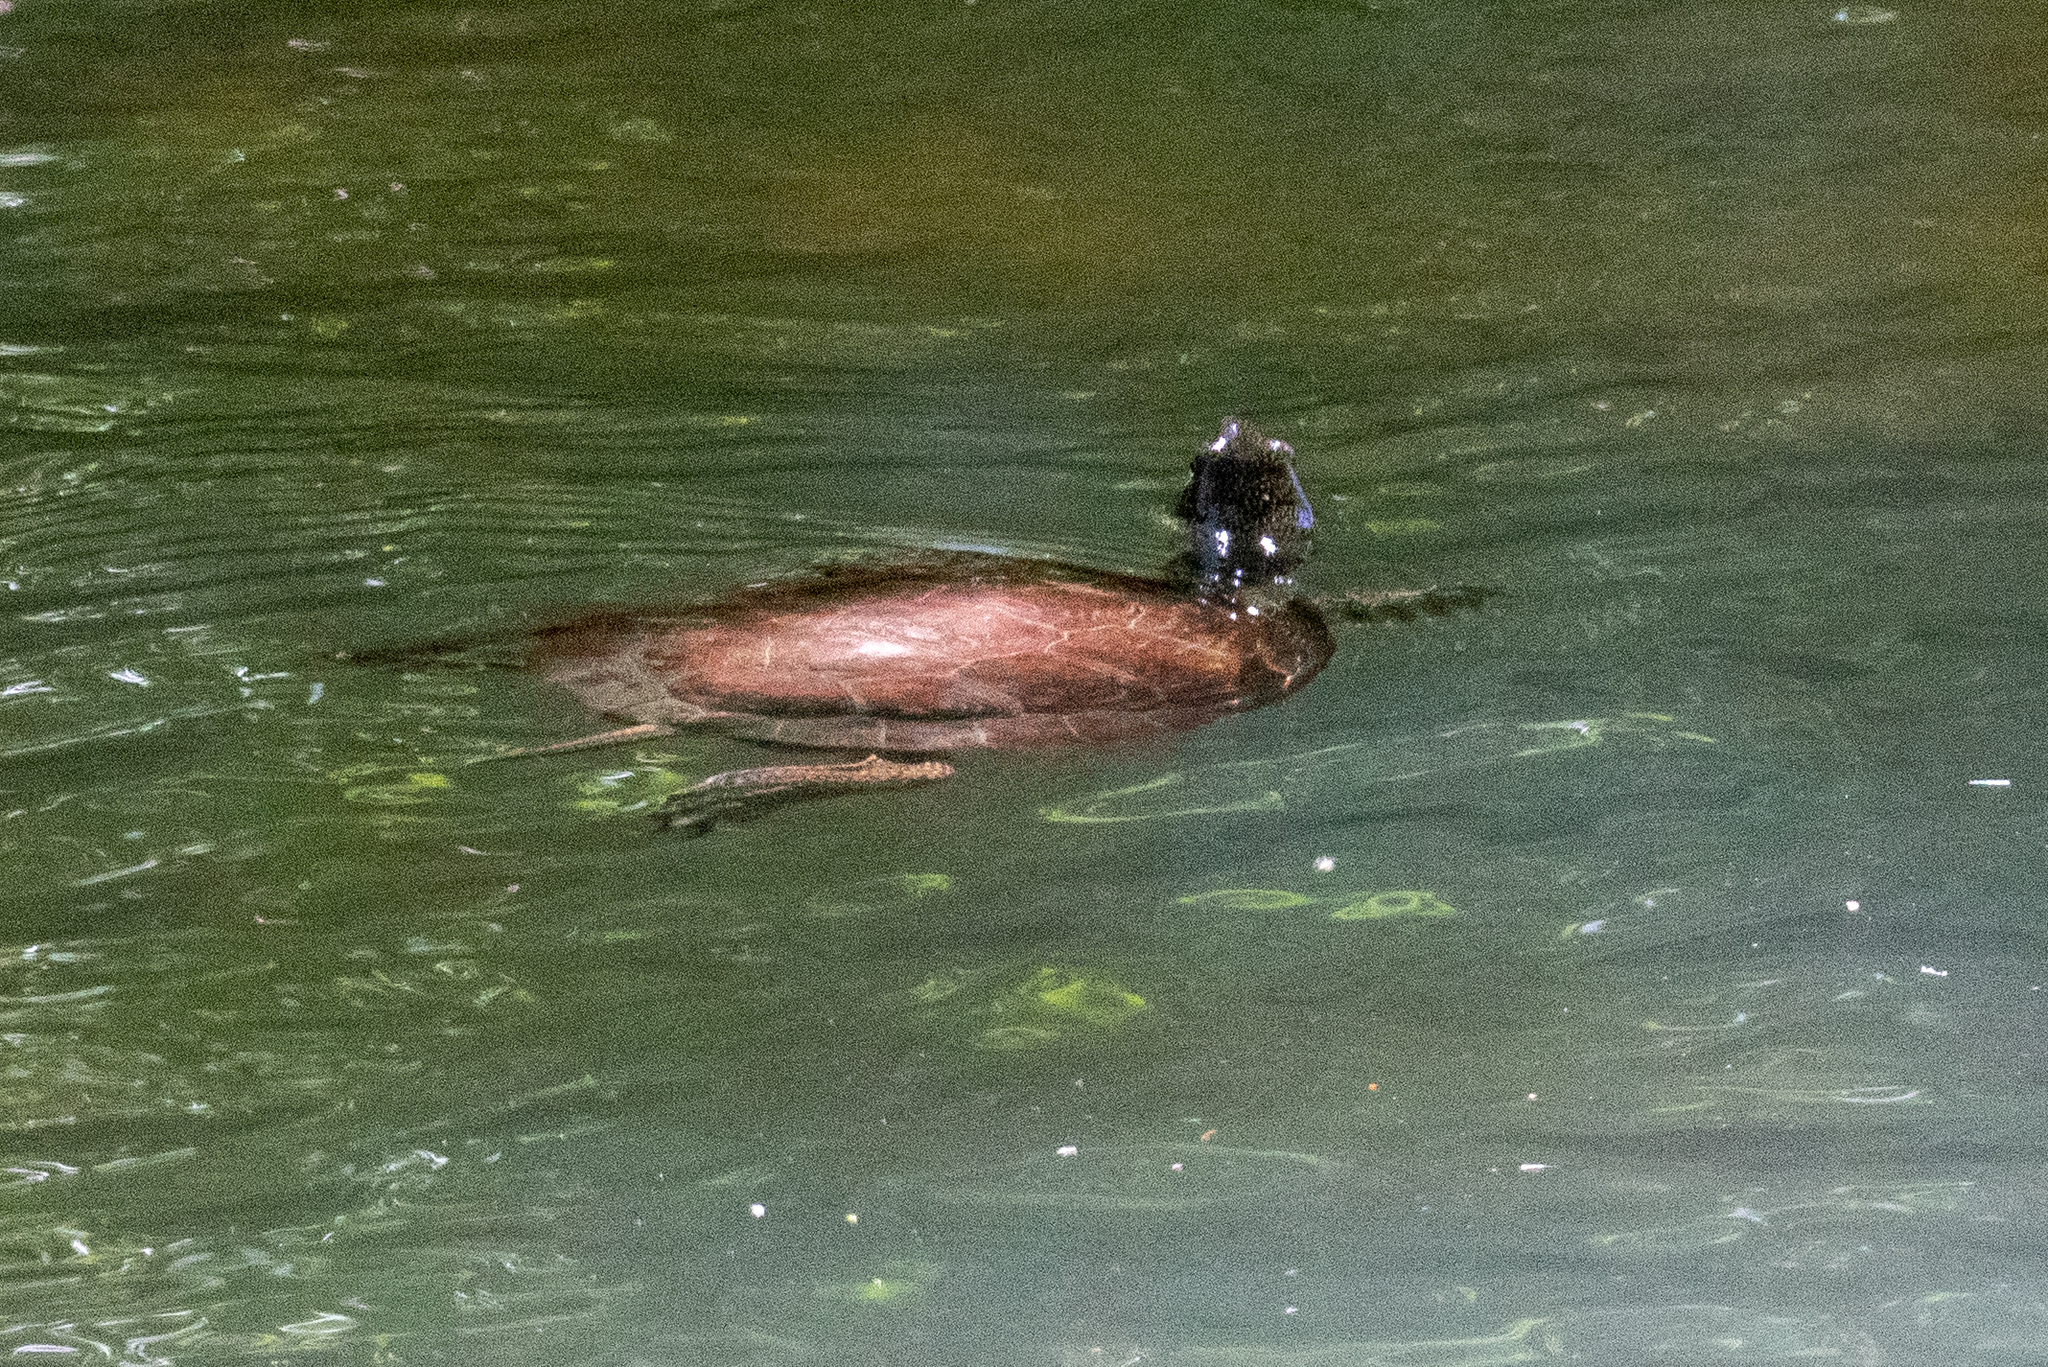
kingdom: Animalia
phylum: Chordata
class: Testudines
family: Emydidae
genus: Actinemys
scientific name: Actinemys marmorata
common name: Western pond turtle
